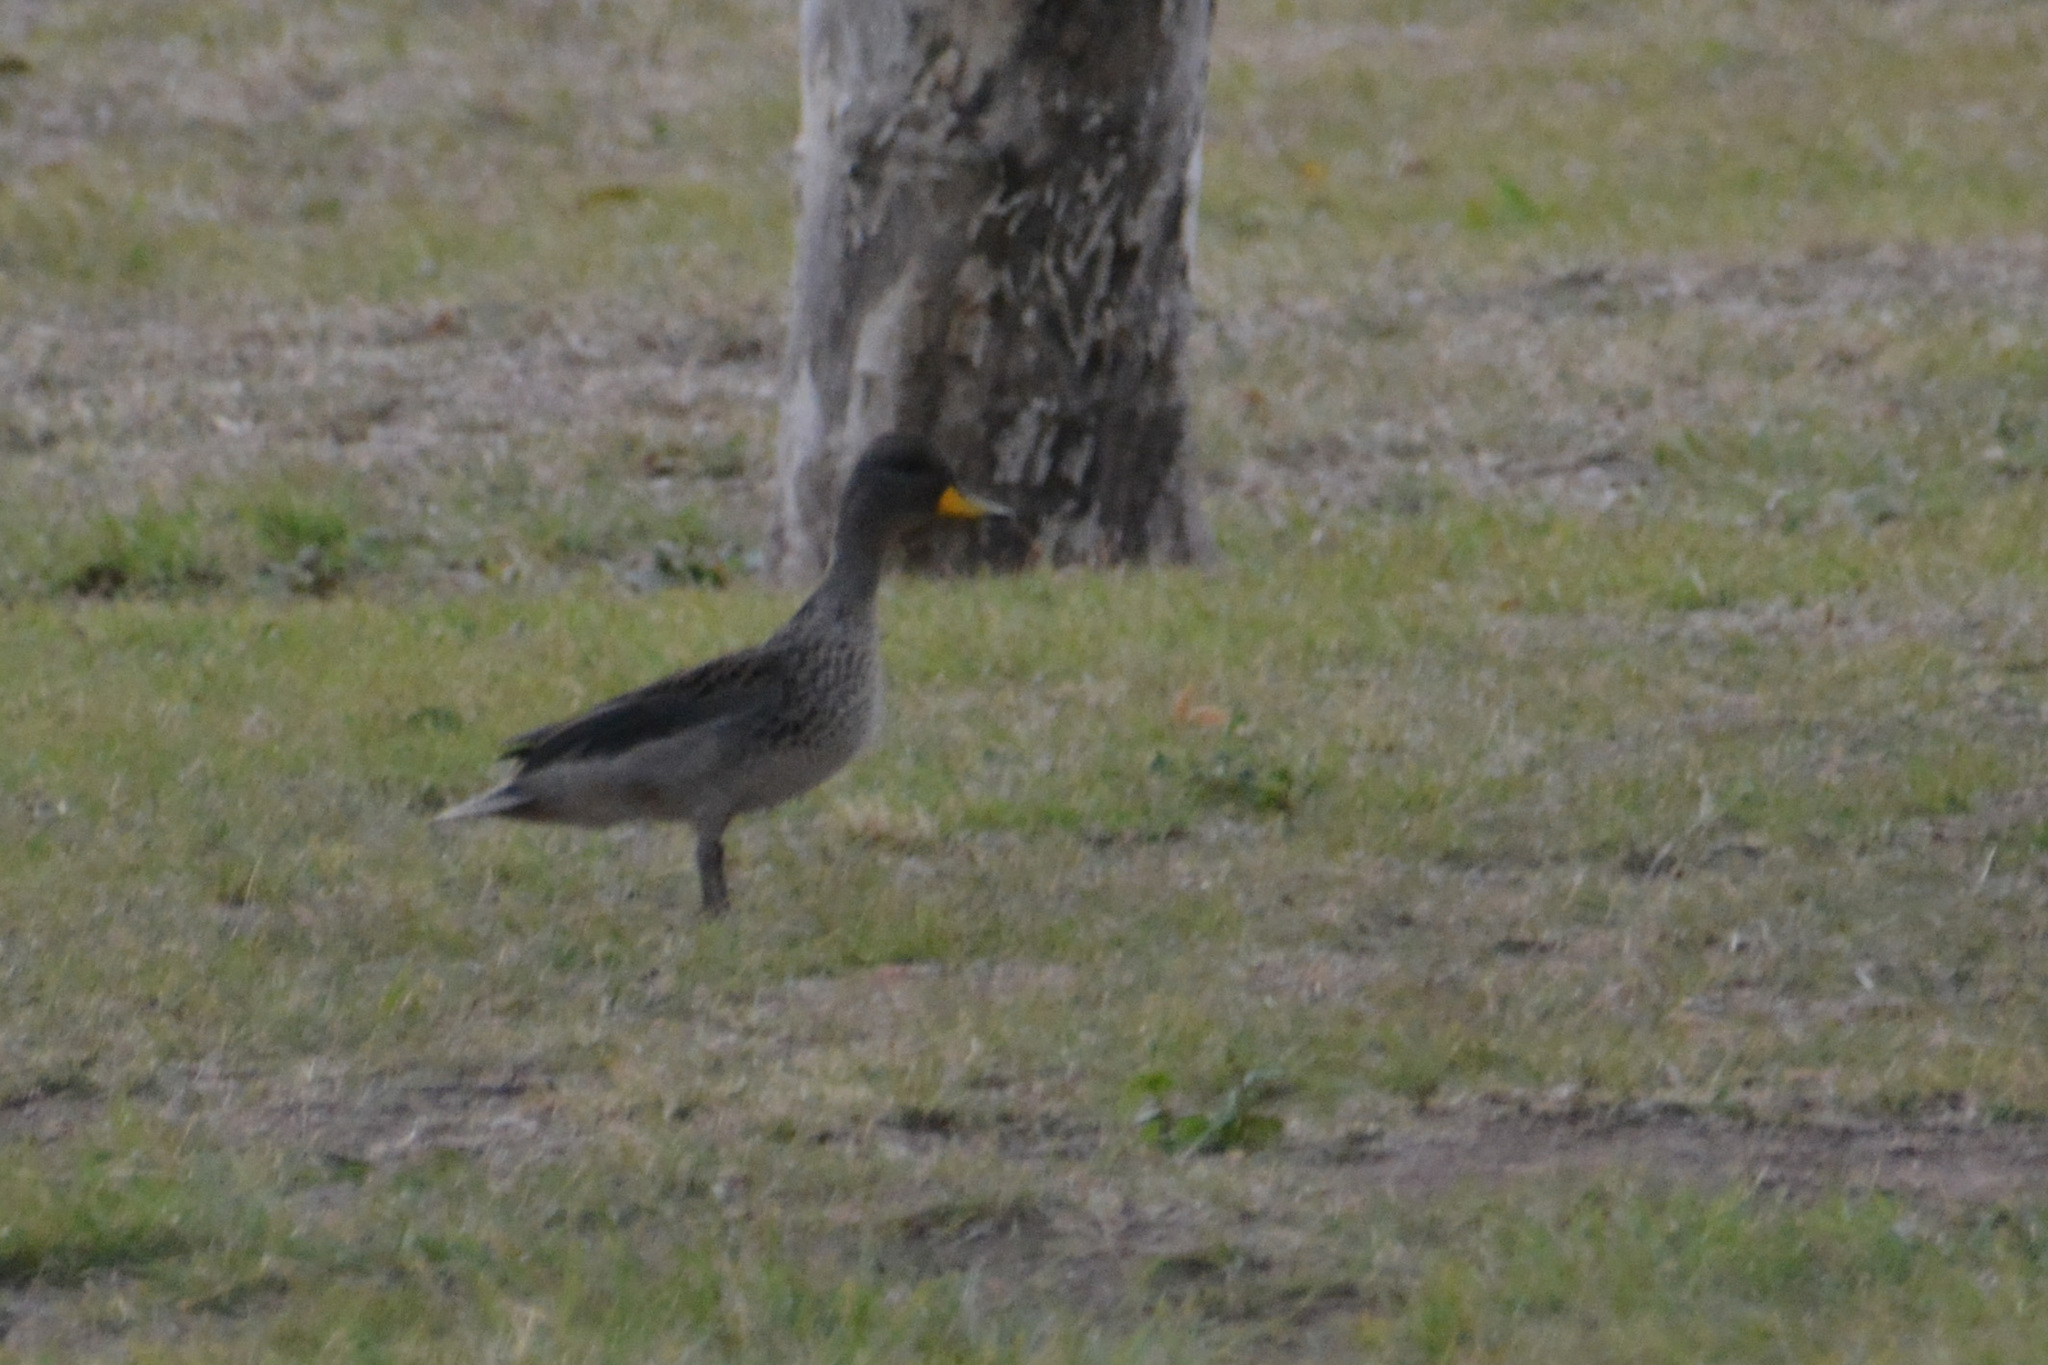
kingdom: Animalia
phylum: Chordata
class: Aves
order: Anseriformes
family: Anatidae
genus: Anas
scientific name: Anas flavirostris
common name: Yellow-billed teal
